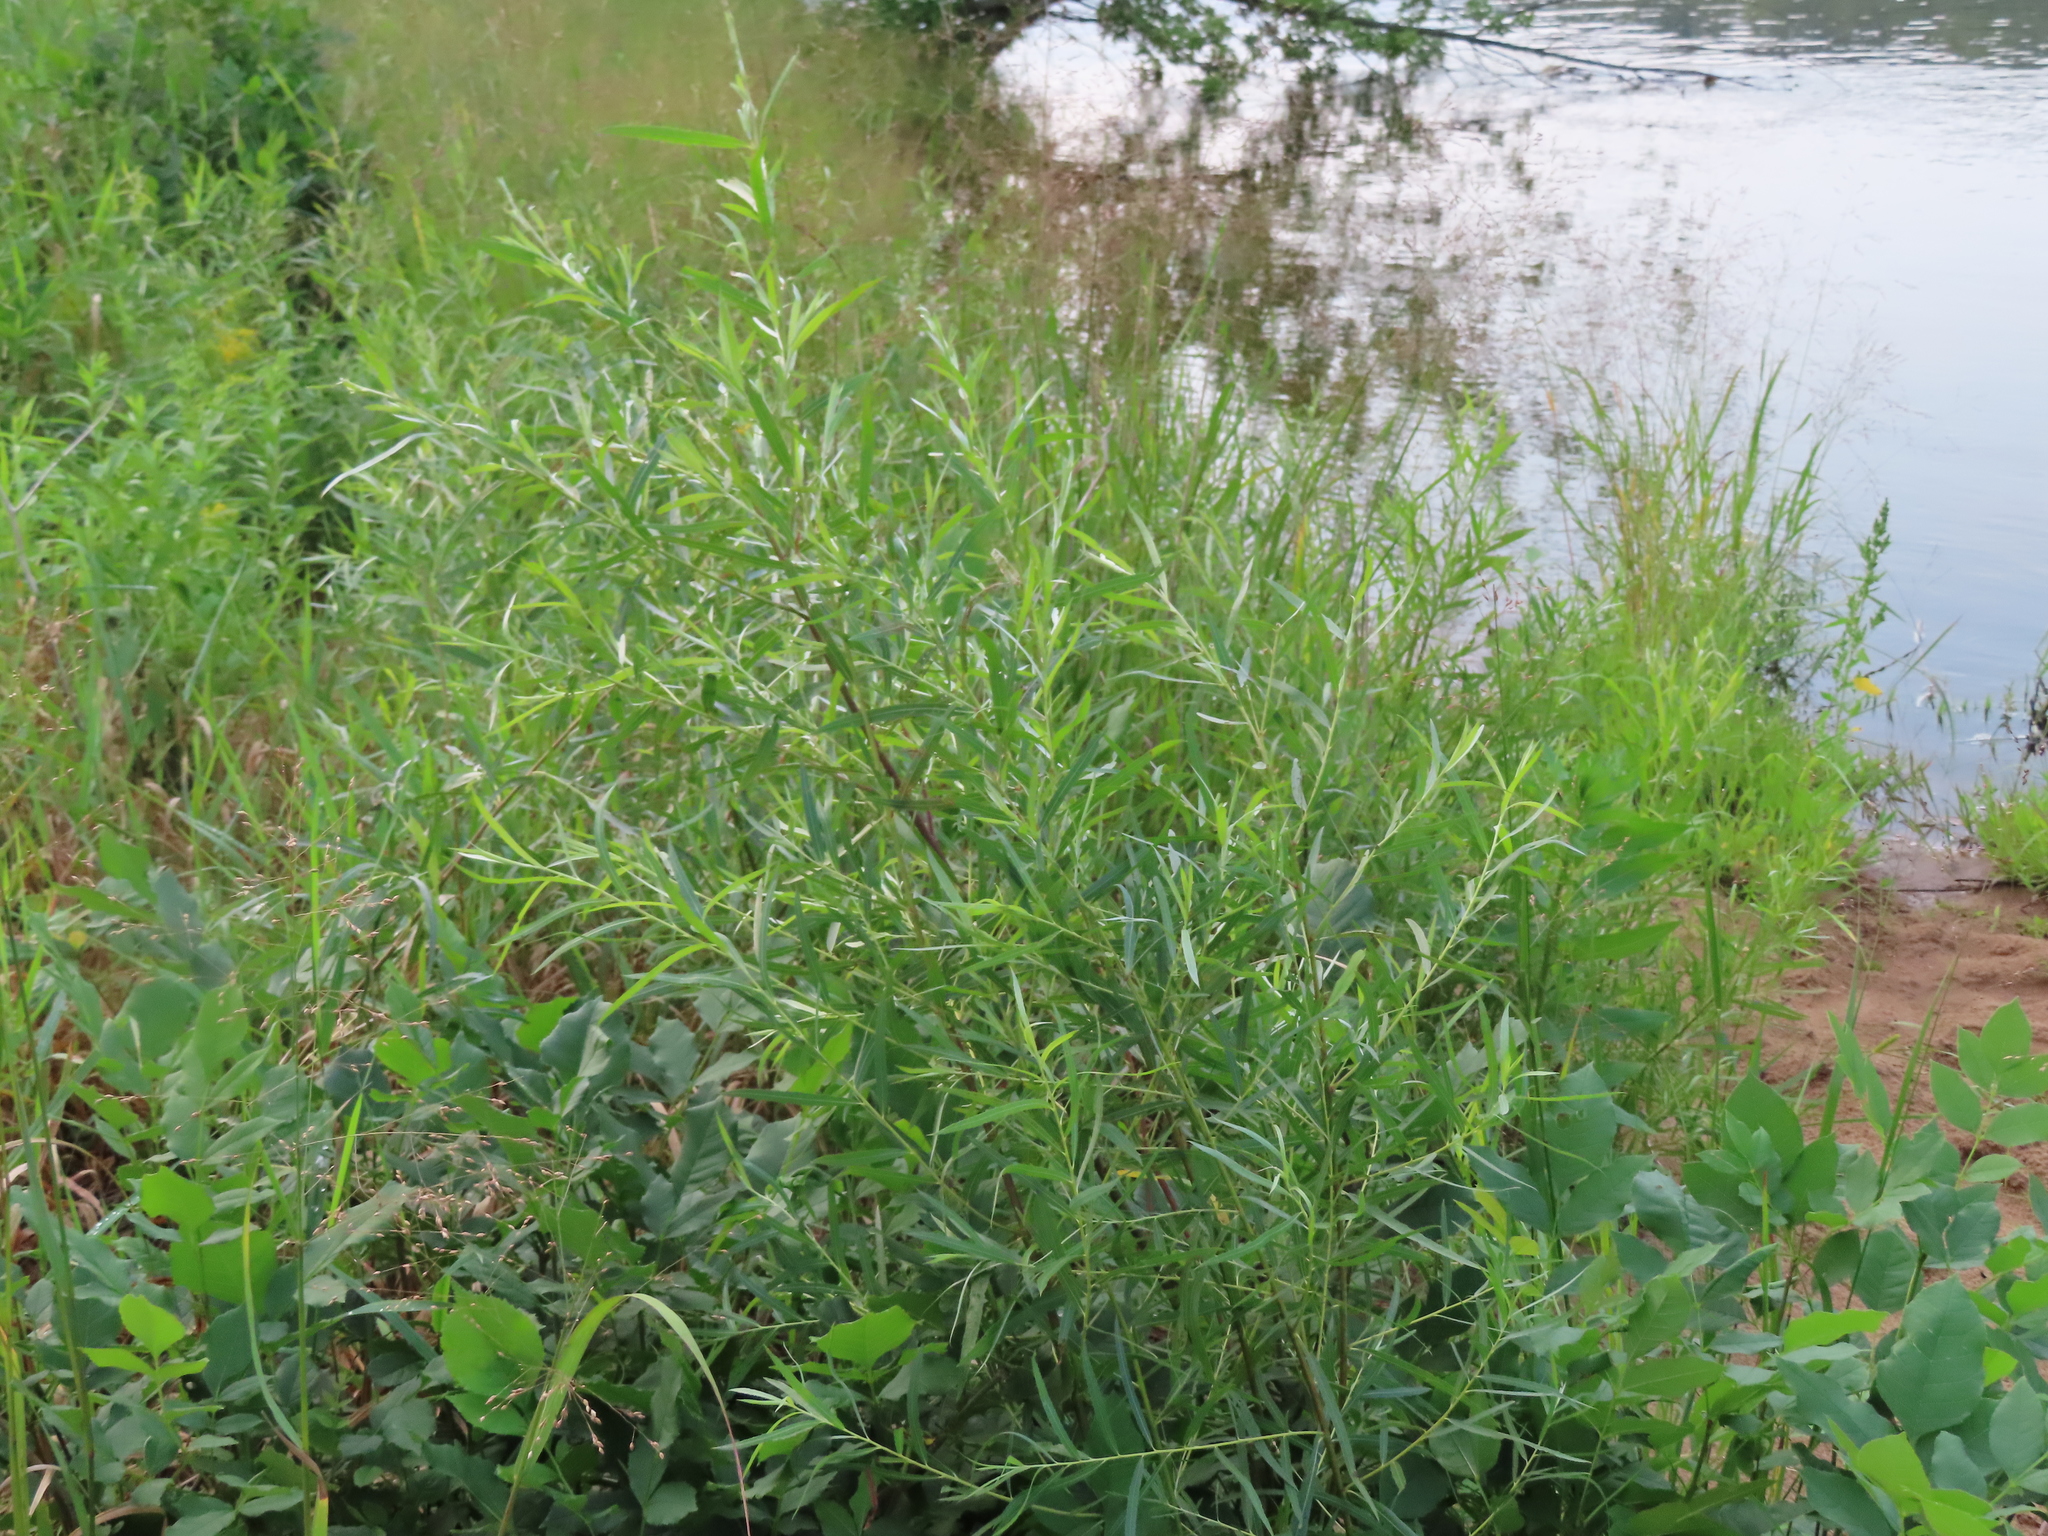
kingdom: Plantae
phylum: Tracheophyta
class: Magnoliopsida
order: Malpighiales
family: Salicaceae
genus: Salix
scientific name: Salix interior
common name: Sandbar willow
